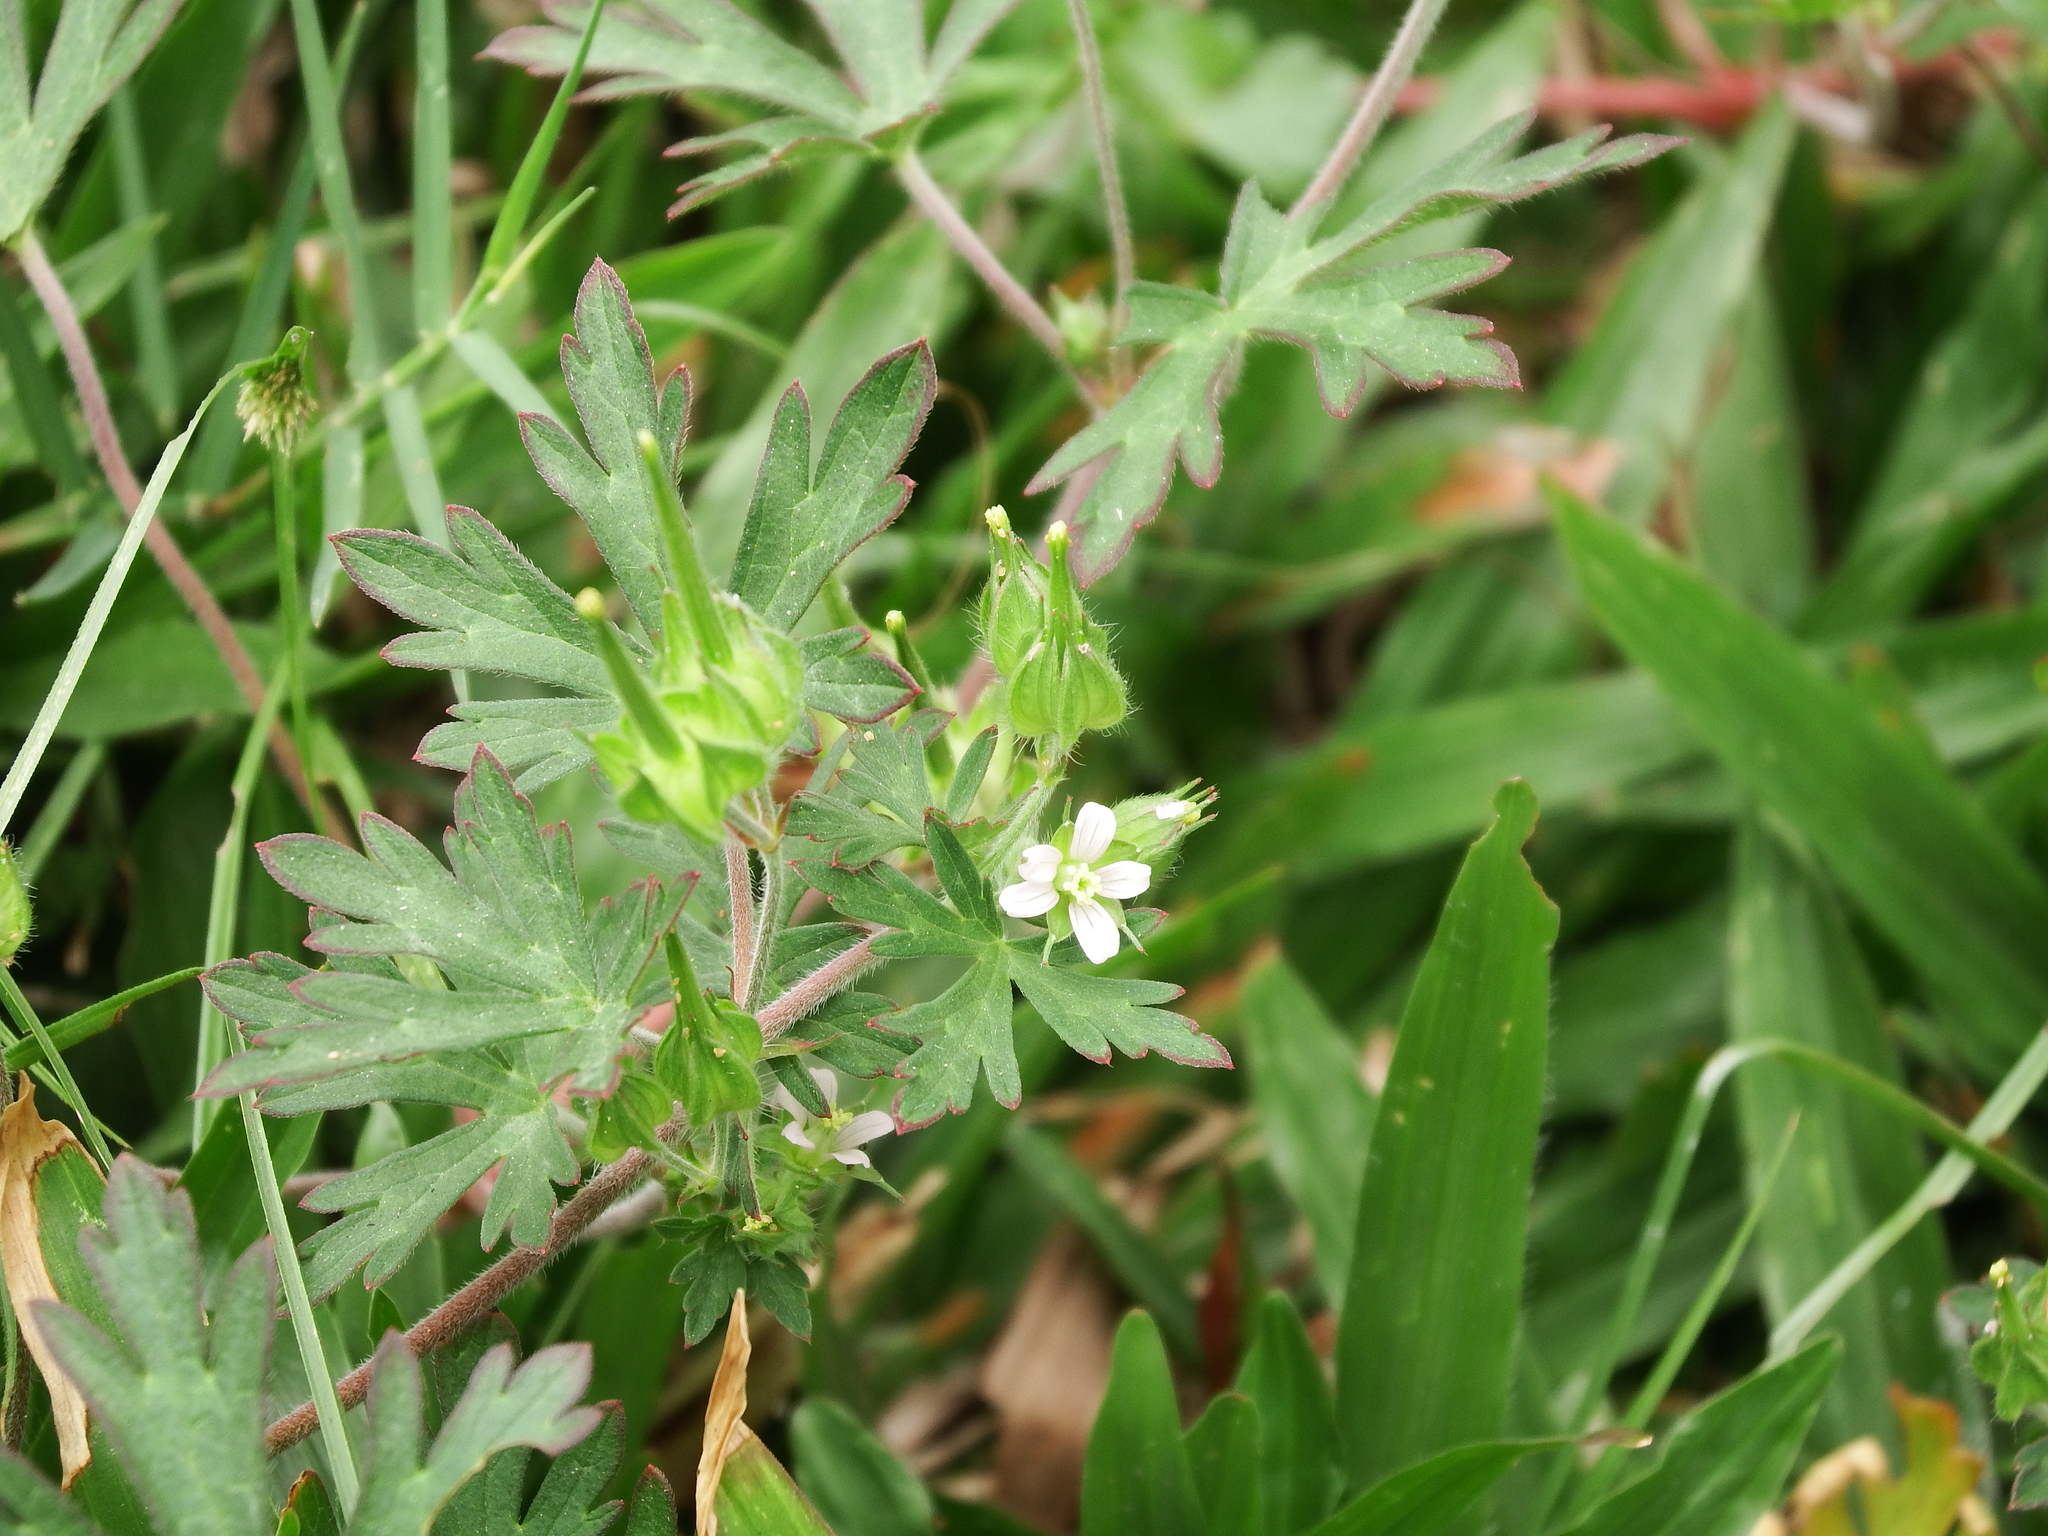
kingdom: Plantae
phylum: Tracheophyta
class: Magnoliopsida
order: Geraniales
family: Geraniaceae
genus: Geranium
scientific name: Geranium carolinianum
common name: Carolina crane's-bill
